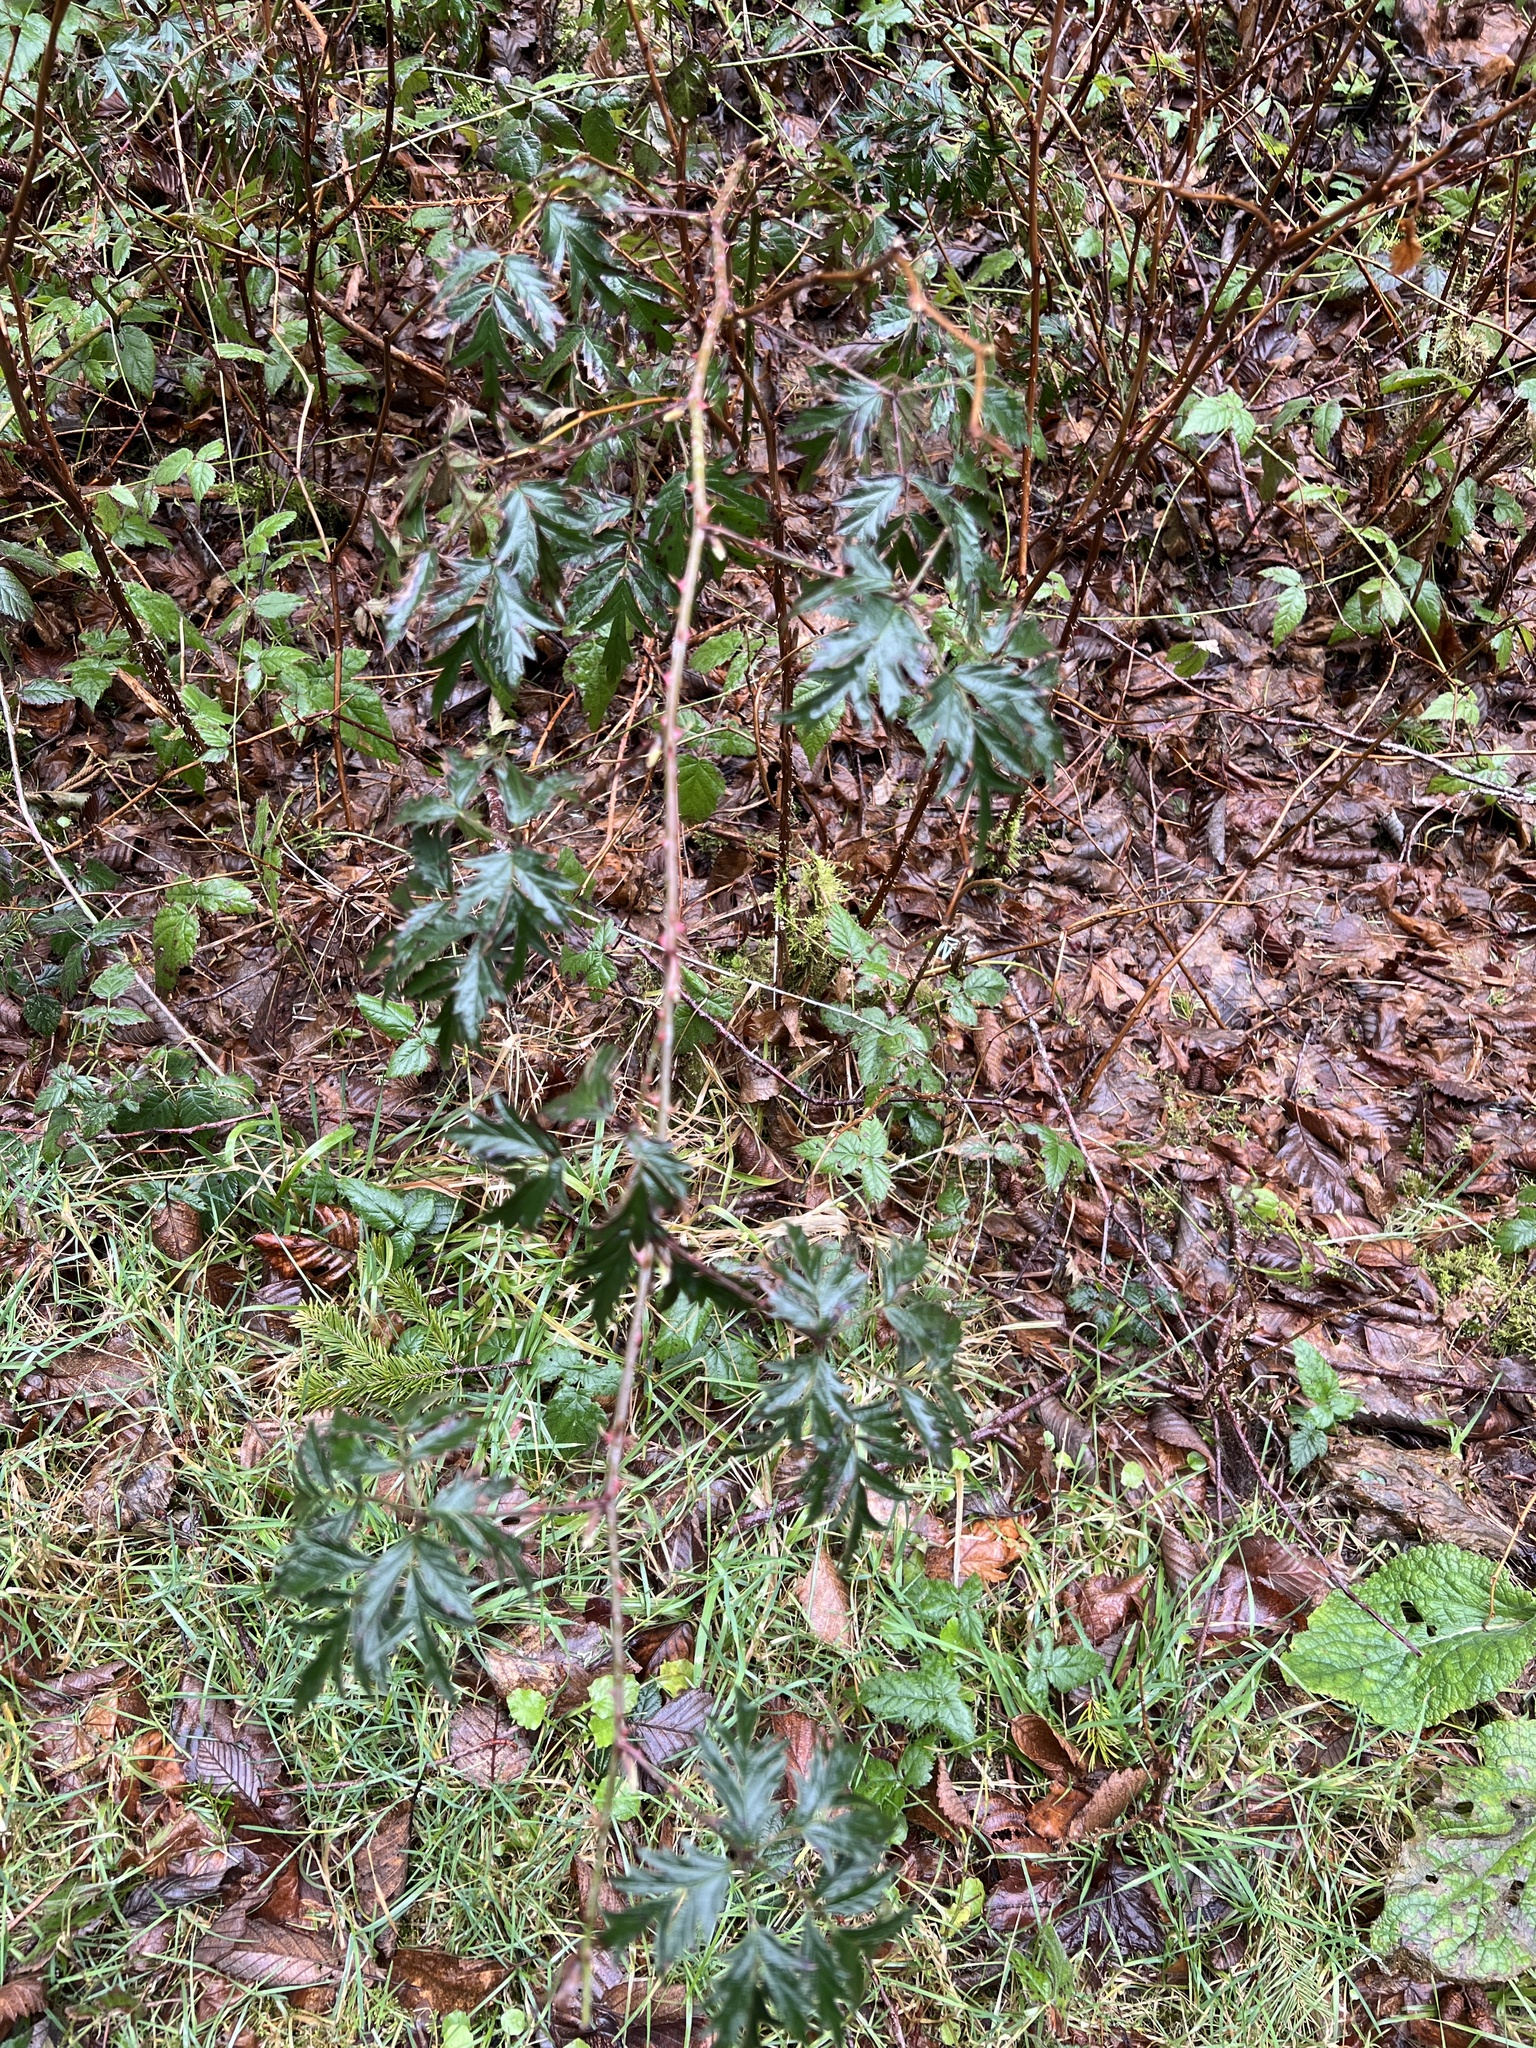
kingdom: Plantae
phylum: Tracheophyta
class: Magnoliopsida
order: Rosales
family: Rosaceae
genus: Rubus
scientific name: Rubus laciniatus
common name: Evergreen blackberry
